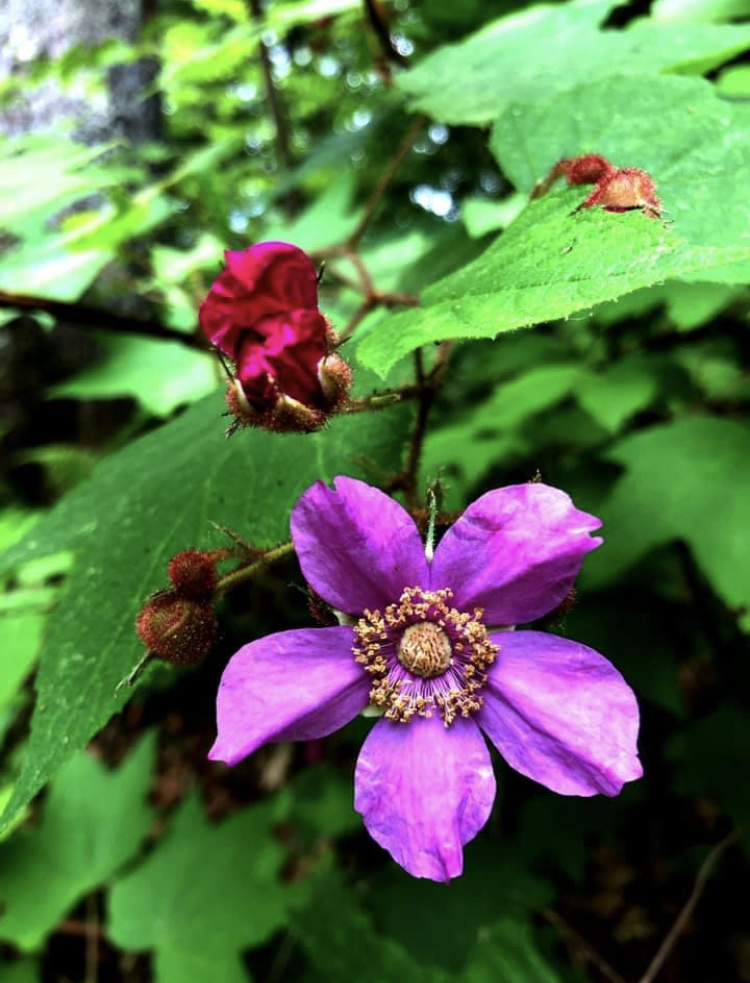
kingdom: Plantae
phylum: Tracheophyta
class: Magnoliopsida
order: Rosales
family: Rosaceae
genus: Rubus
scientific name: Rubus odoratus
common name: Purple-flowered raspberry
